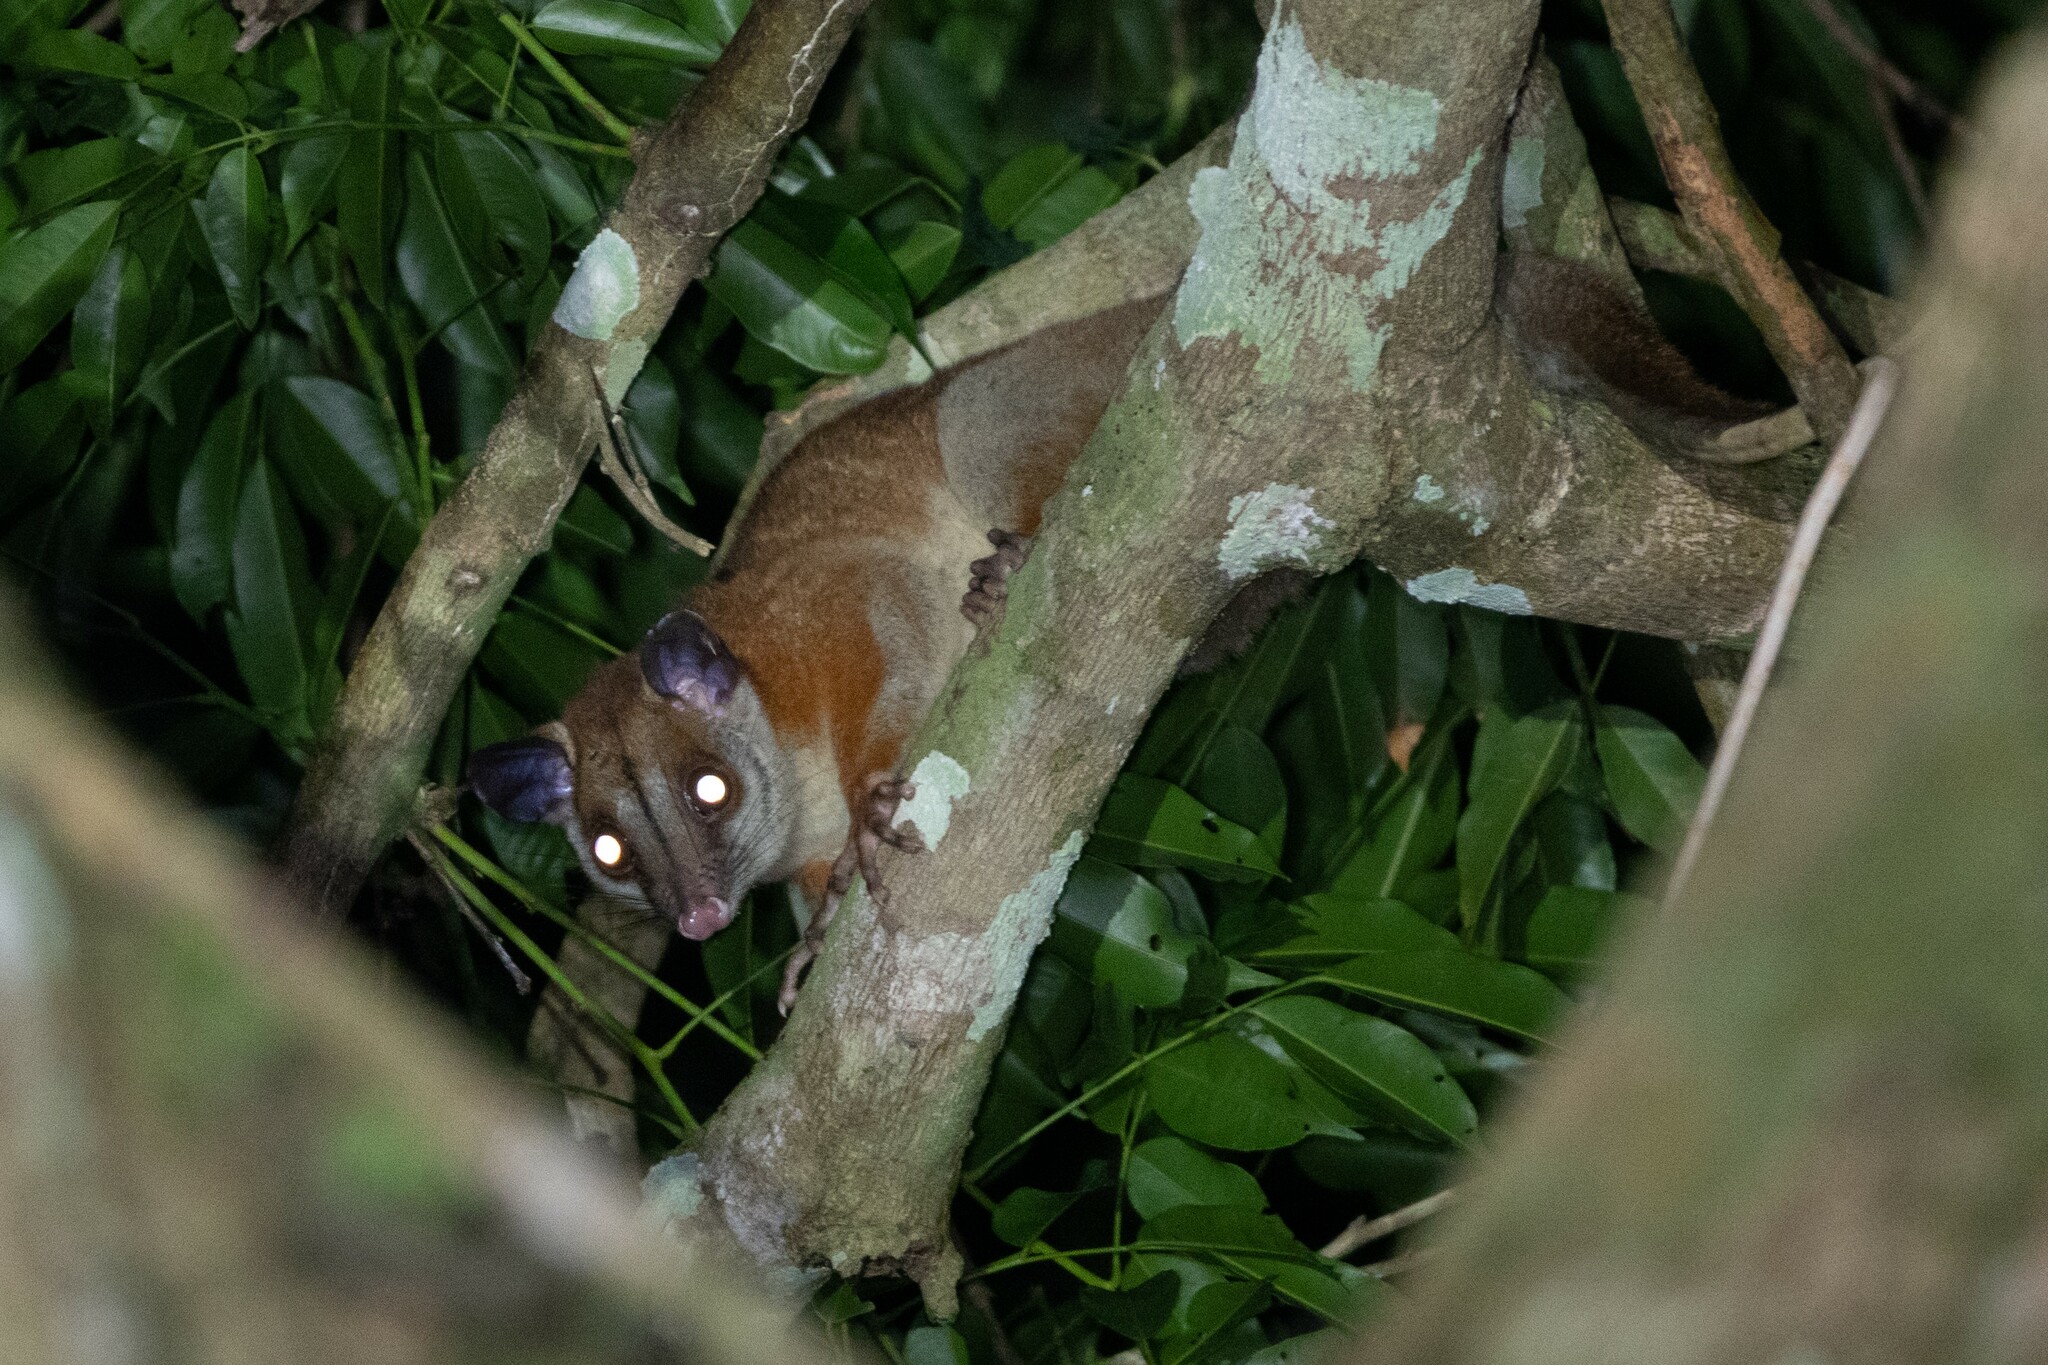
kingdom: Animalia
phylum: Chordata
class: Mammalia
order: Didelphimorphia
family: Didelphidae
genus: Caluromys
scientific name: Caluromys lanatus
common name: Brown-eared woolly opossum
